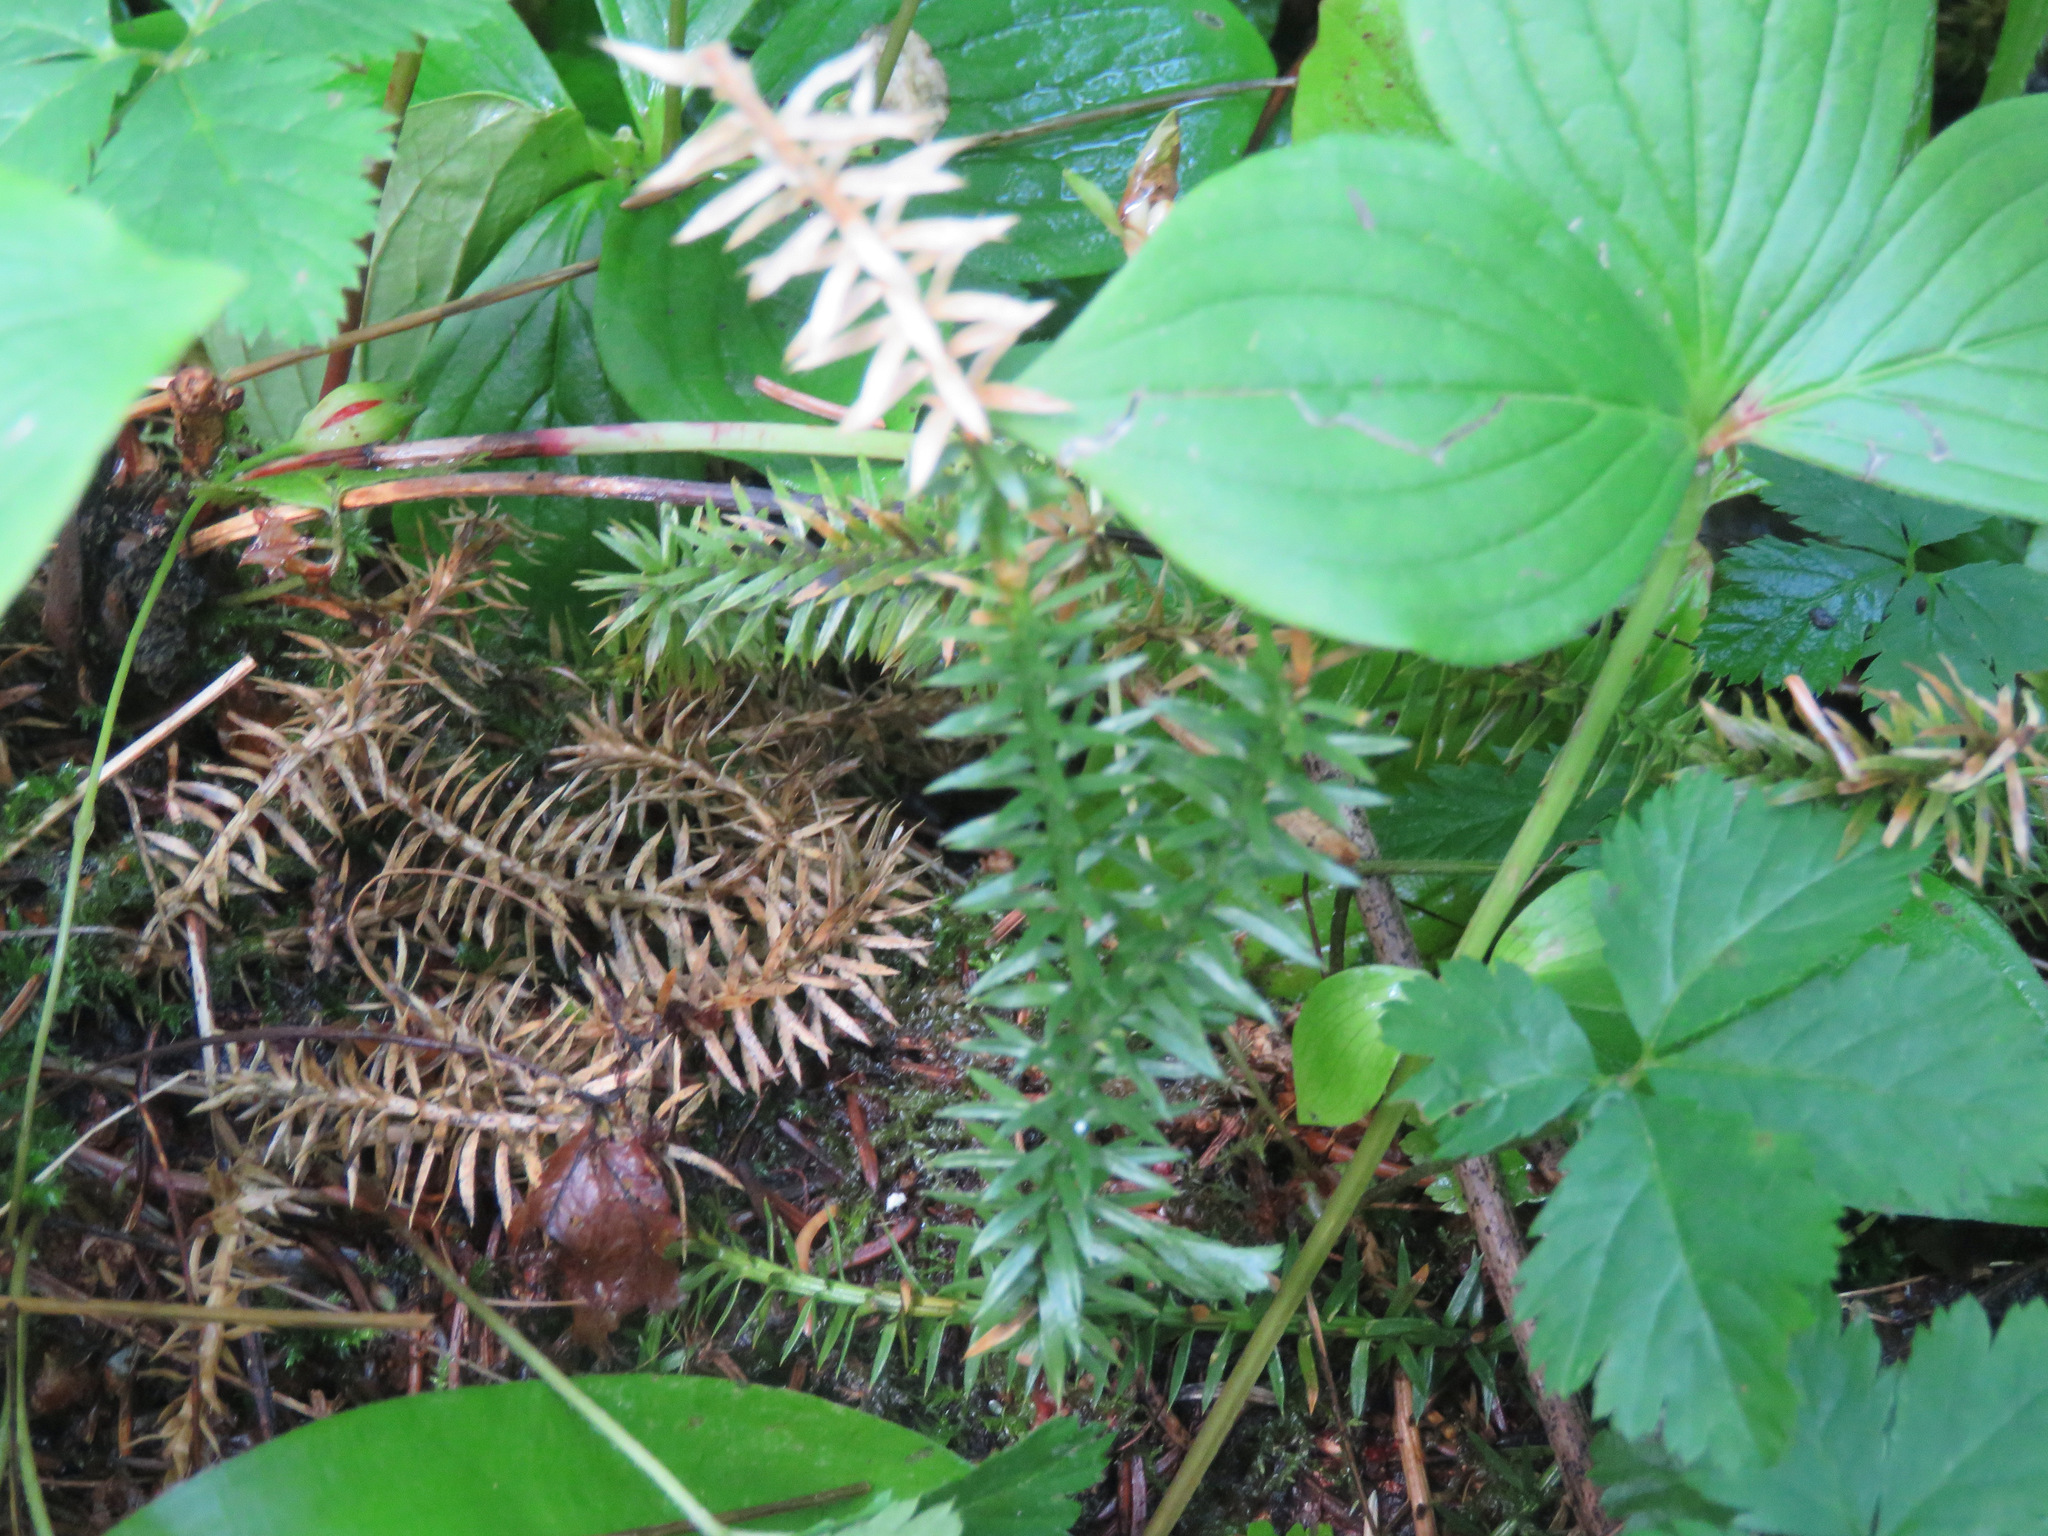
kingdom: Plantae
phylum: Tracheophyta
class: Lycopodiopsida
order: Lycopodiales
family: Lycopodiaceae
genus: Spinulum
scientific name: Spinulum annotinum
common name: Interrupted club-moss
